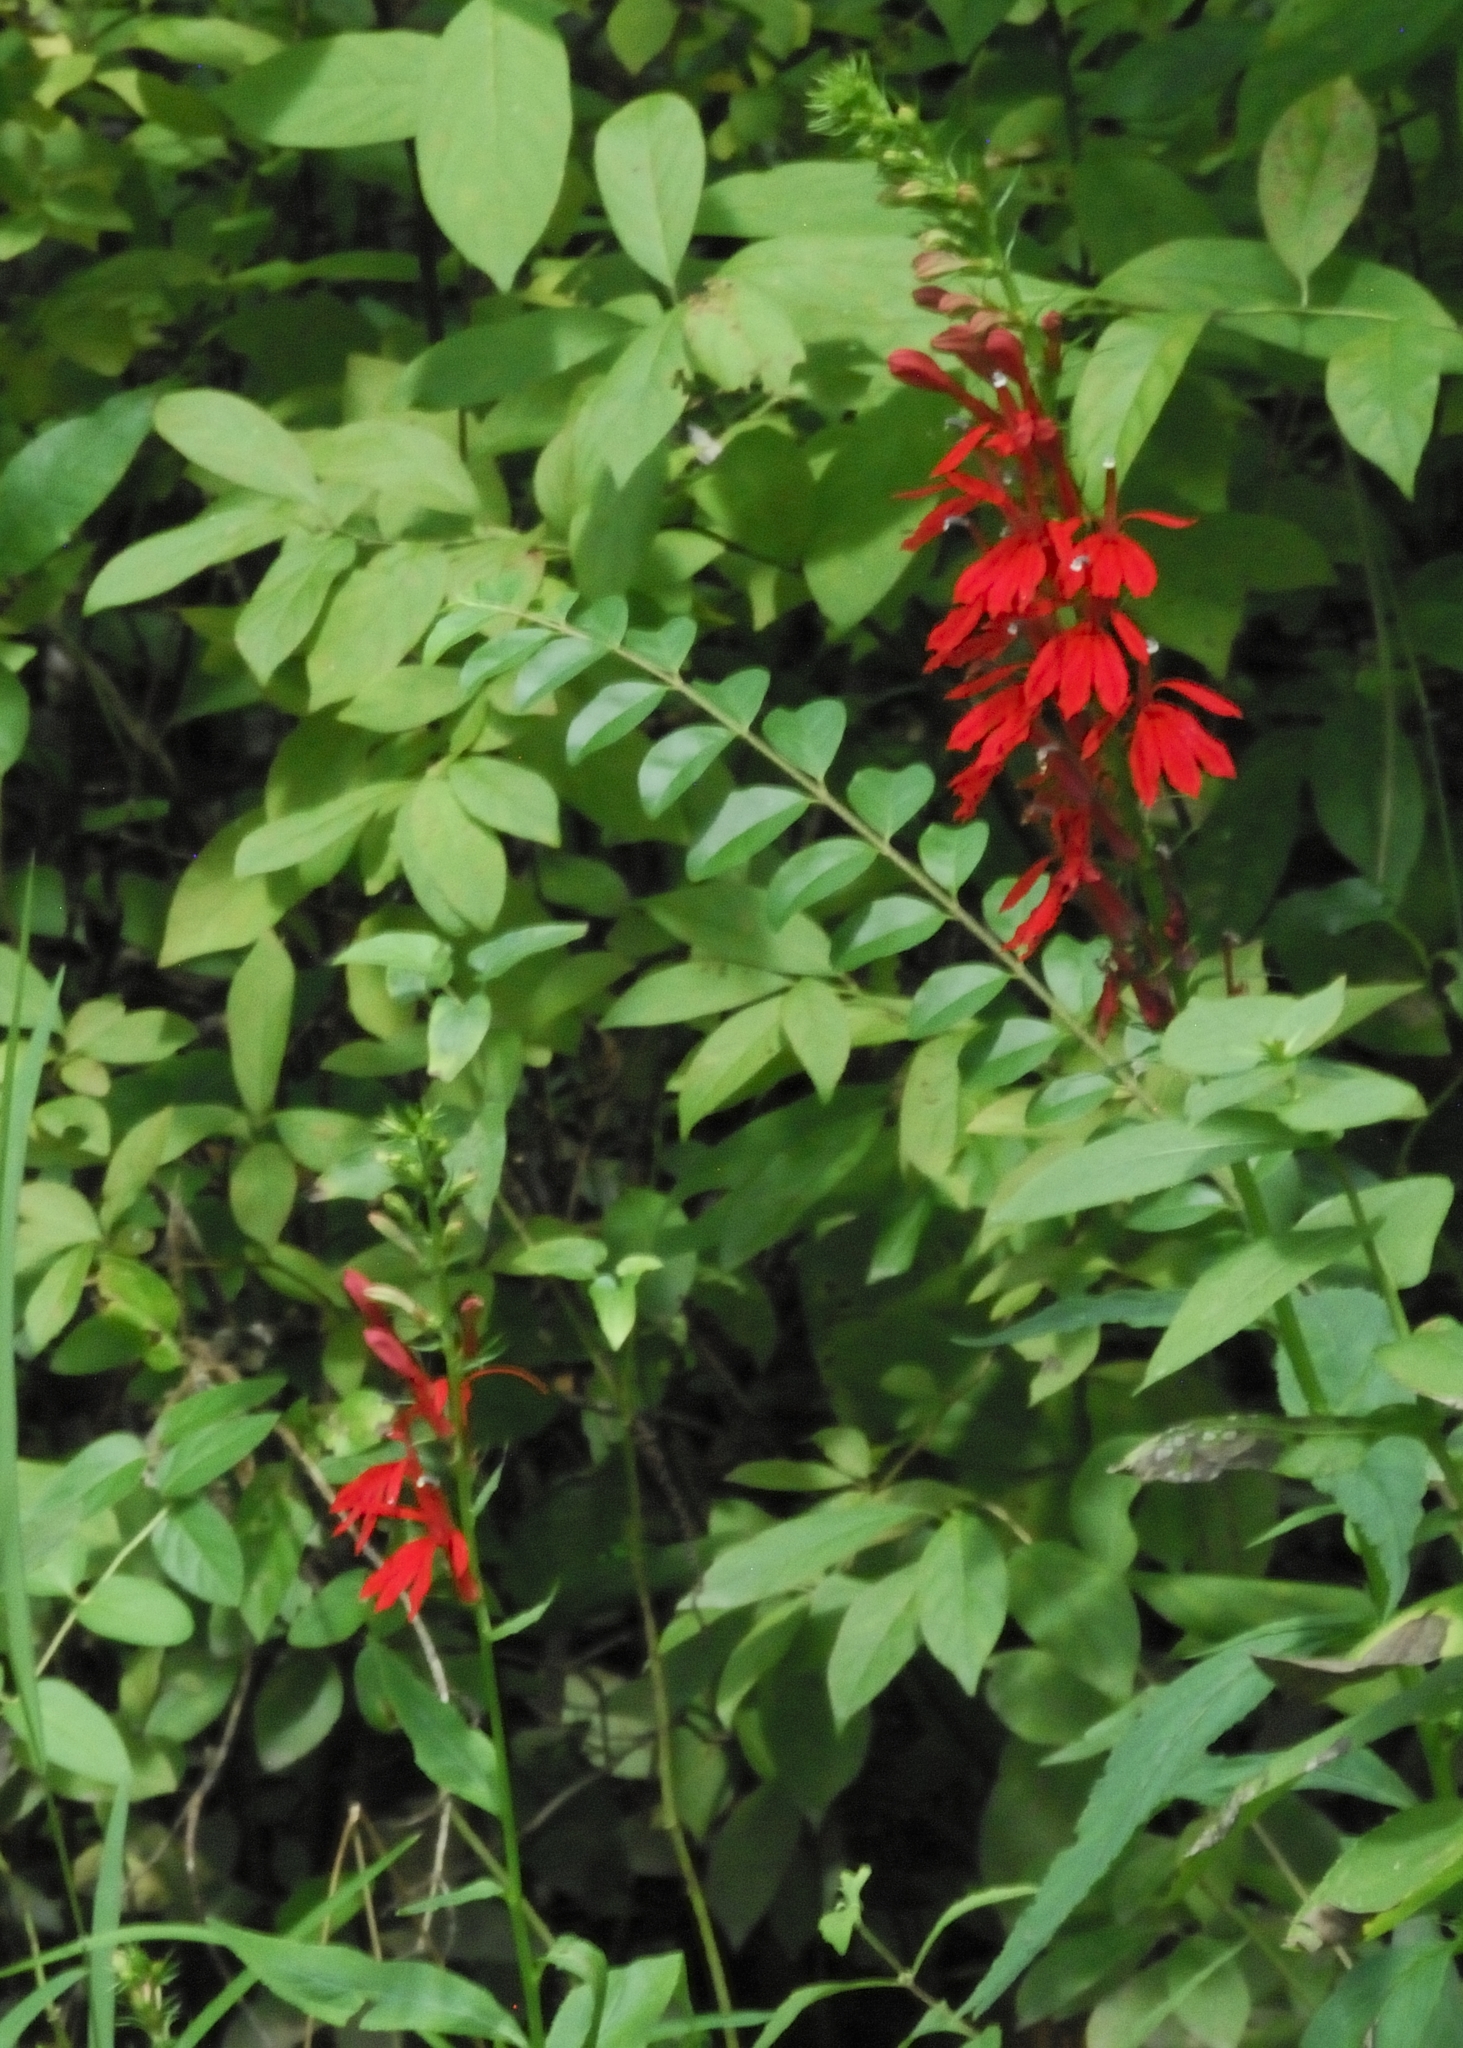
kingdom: Plantae
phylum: Tracheophyta
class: Magnoliopsida
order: Asterales
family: Campanulaceae
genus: Lobelia
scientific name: Lobelia cardinalis
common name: Cardinal flower
